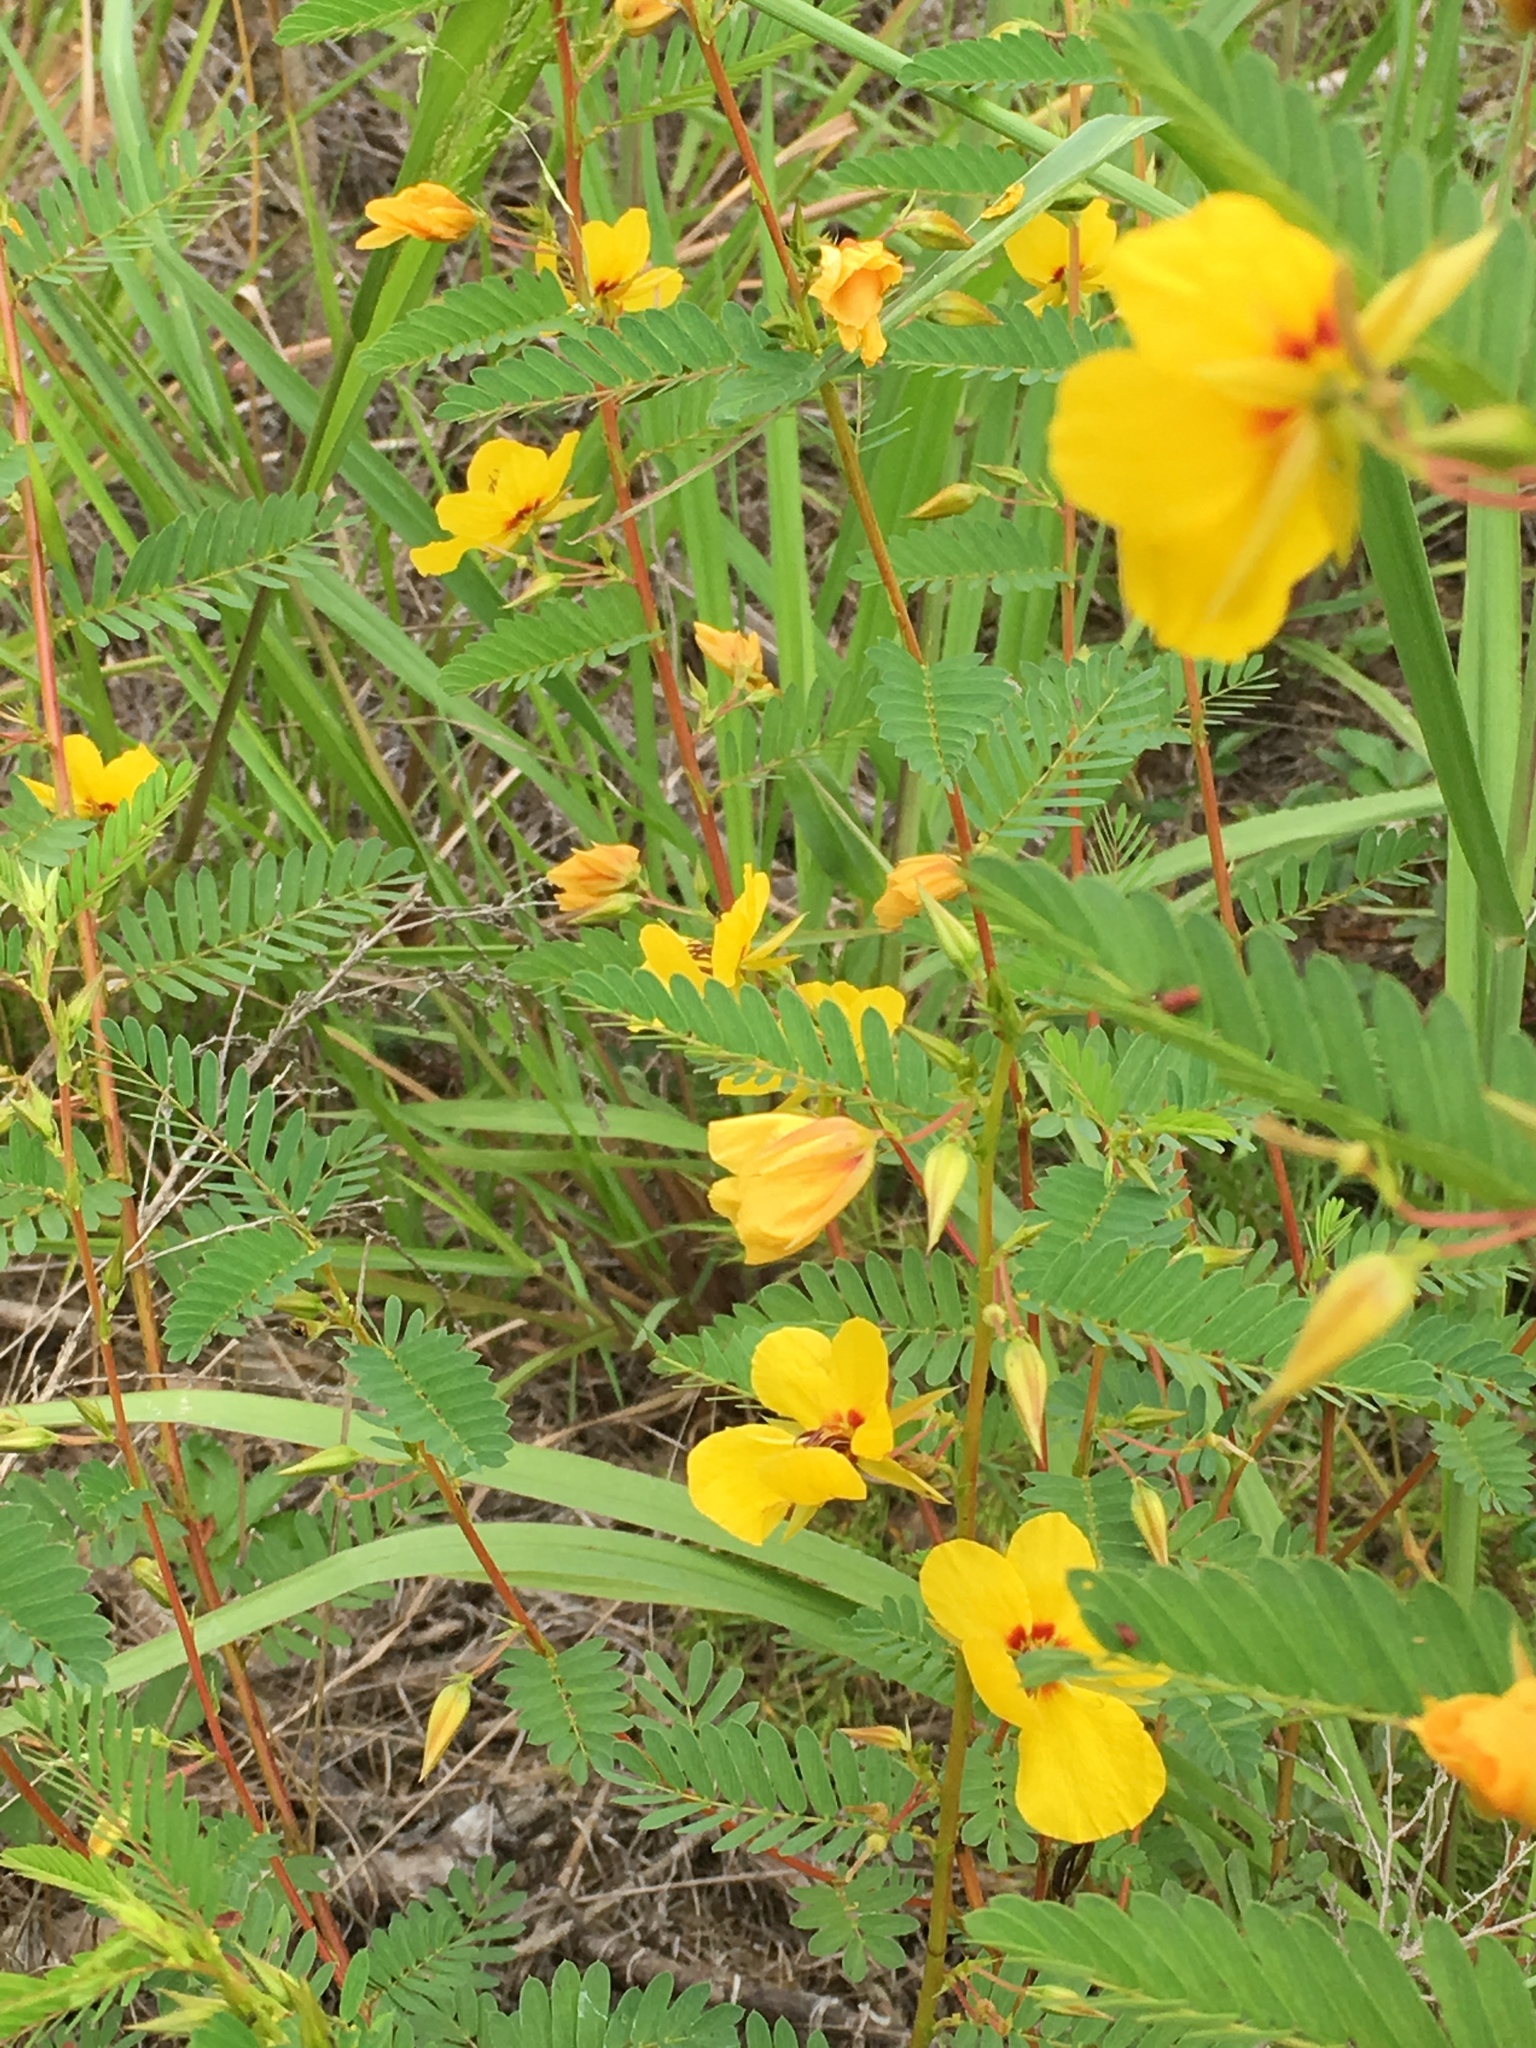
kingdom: Plantae
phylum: Tracheophyta
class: Magnoliopsida
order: Fabales
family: Fabaceae
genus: Chamaecrista
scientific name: Chamaecrista fasciculata
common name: Golden cassia
